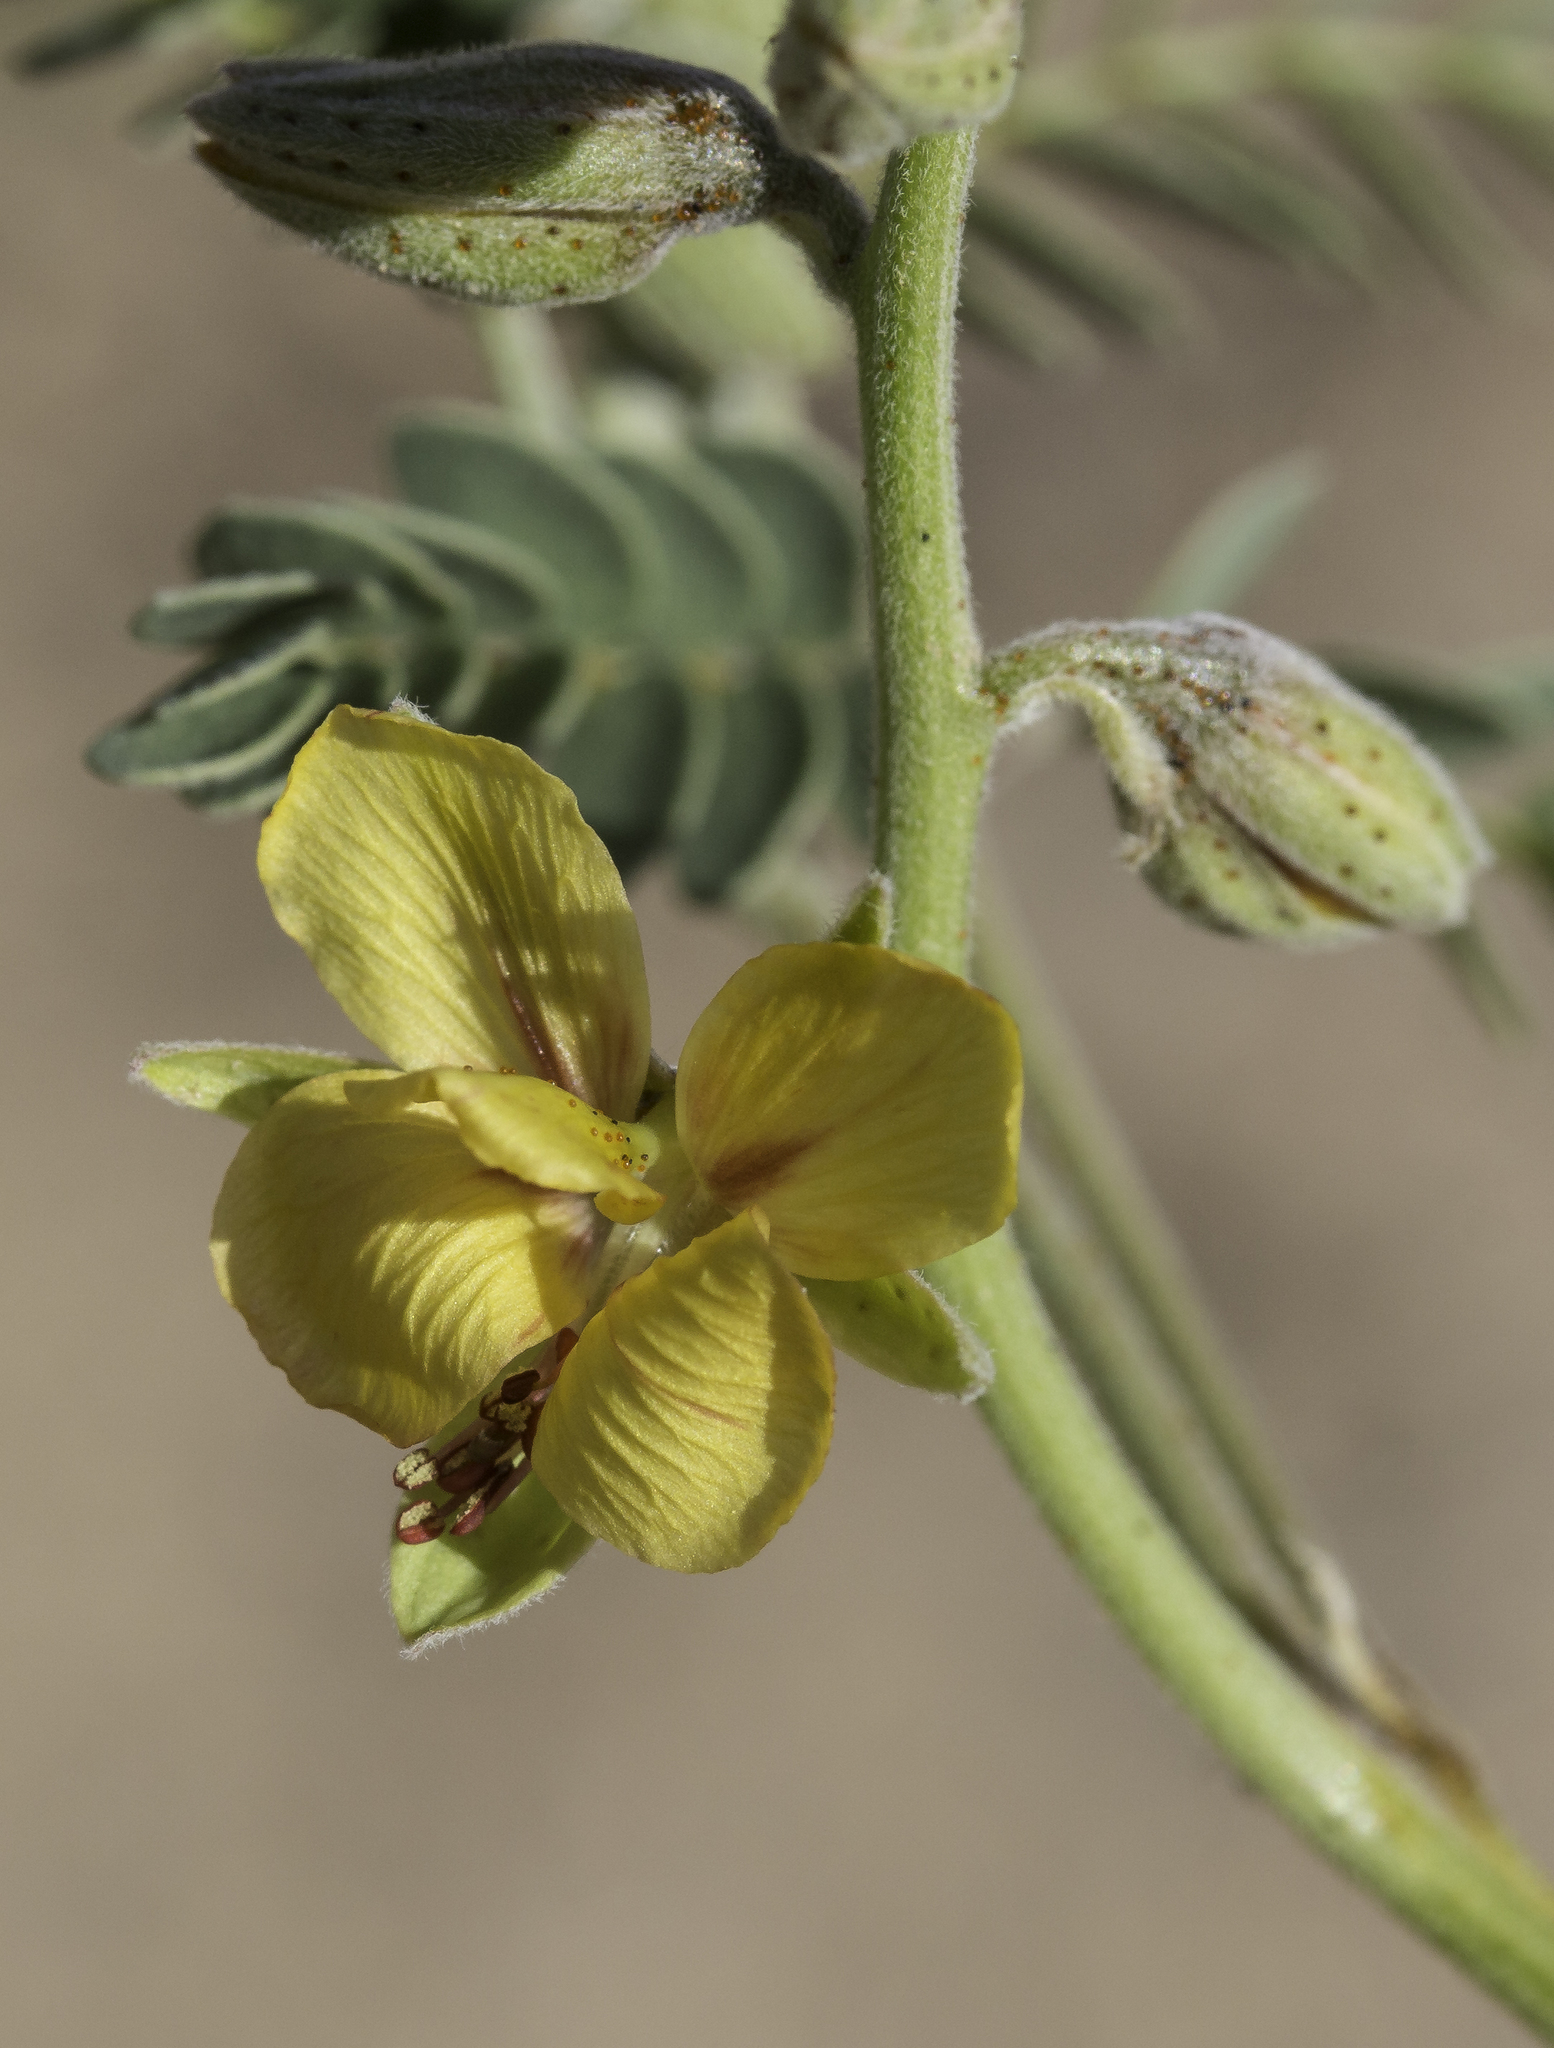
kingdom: Plantae
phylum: Tracheophyta
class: Magnoliopsida
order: Fabales
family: Fabaceae
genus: Pomaria
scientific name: Pomaria jamesii
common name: James' caesalpinia
